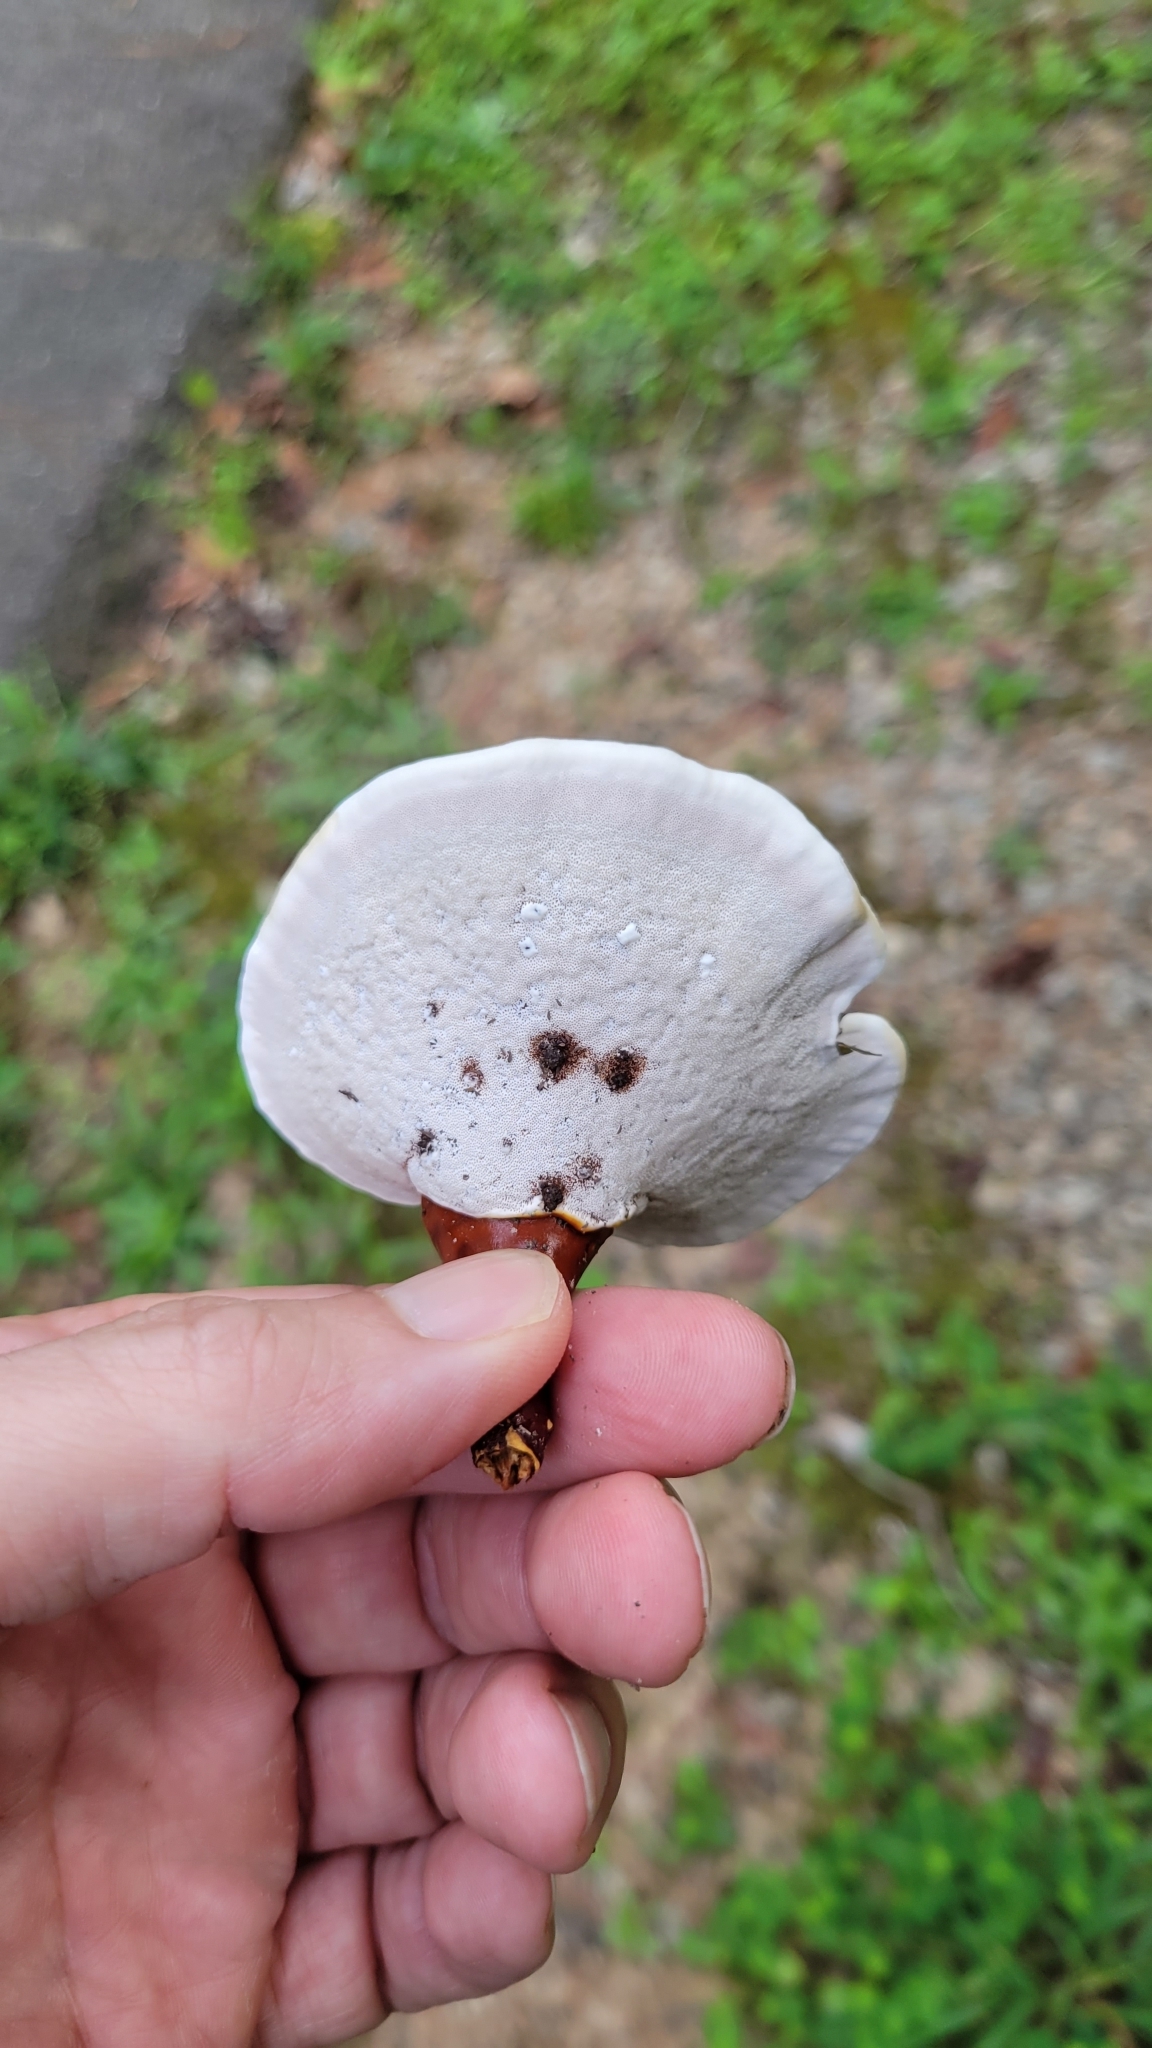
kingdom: Fungi
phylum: Basidiomycota
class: Agaricomycetes
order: Polyporales
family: Polyporaceae
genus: Ganoderma
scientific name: Ganoderma curtisii
